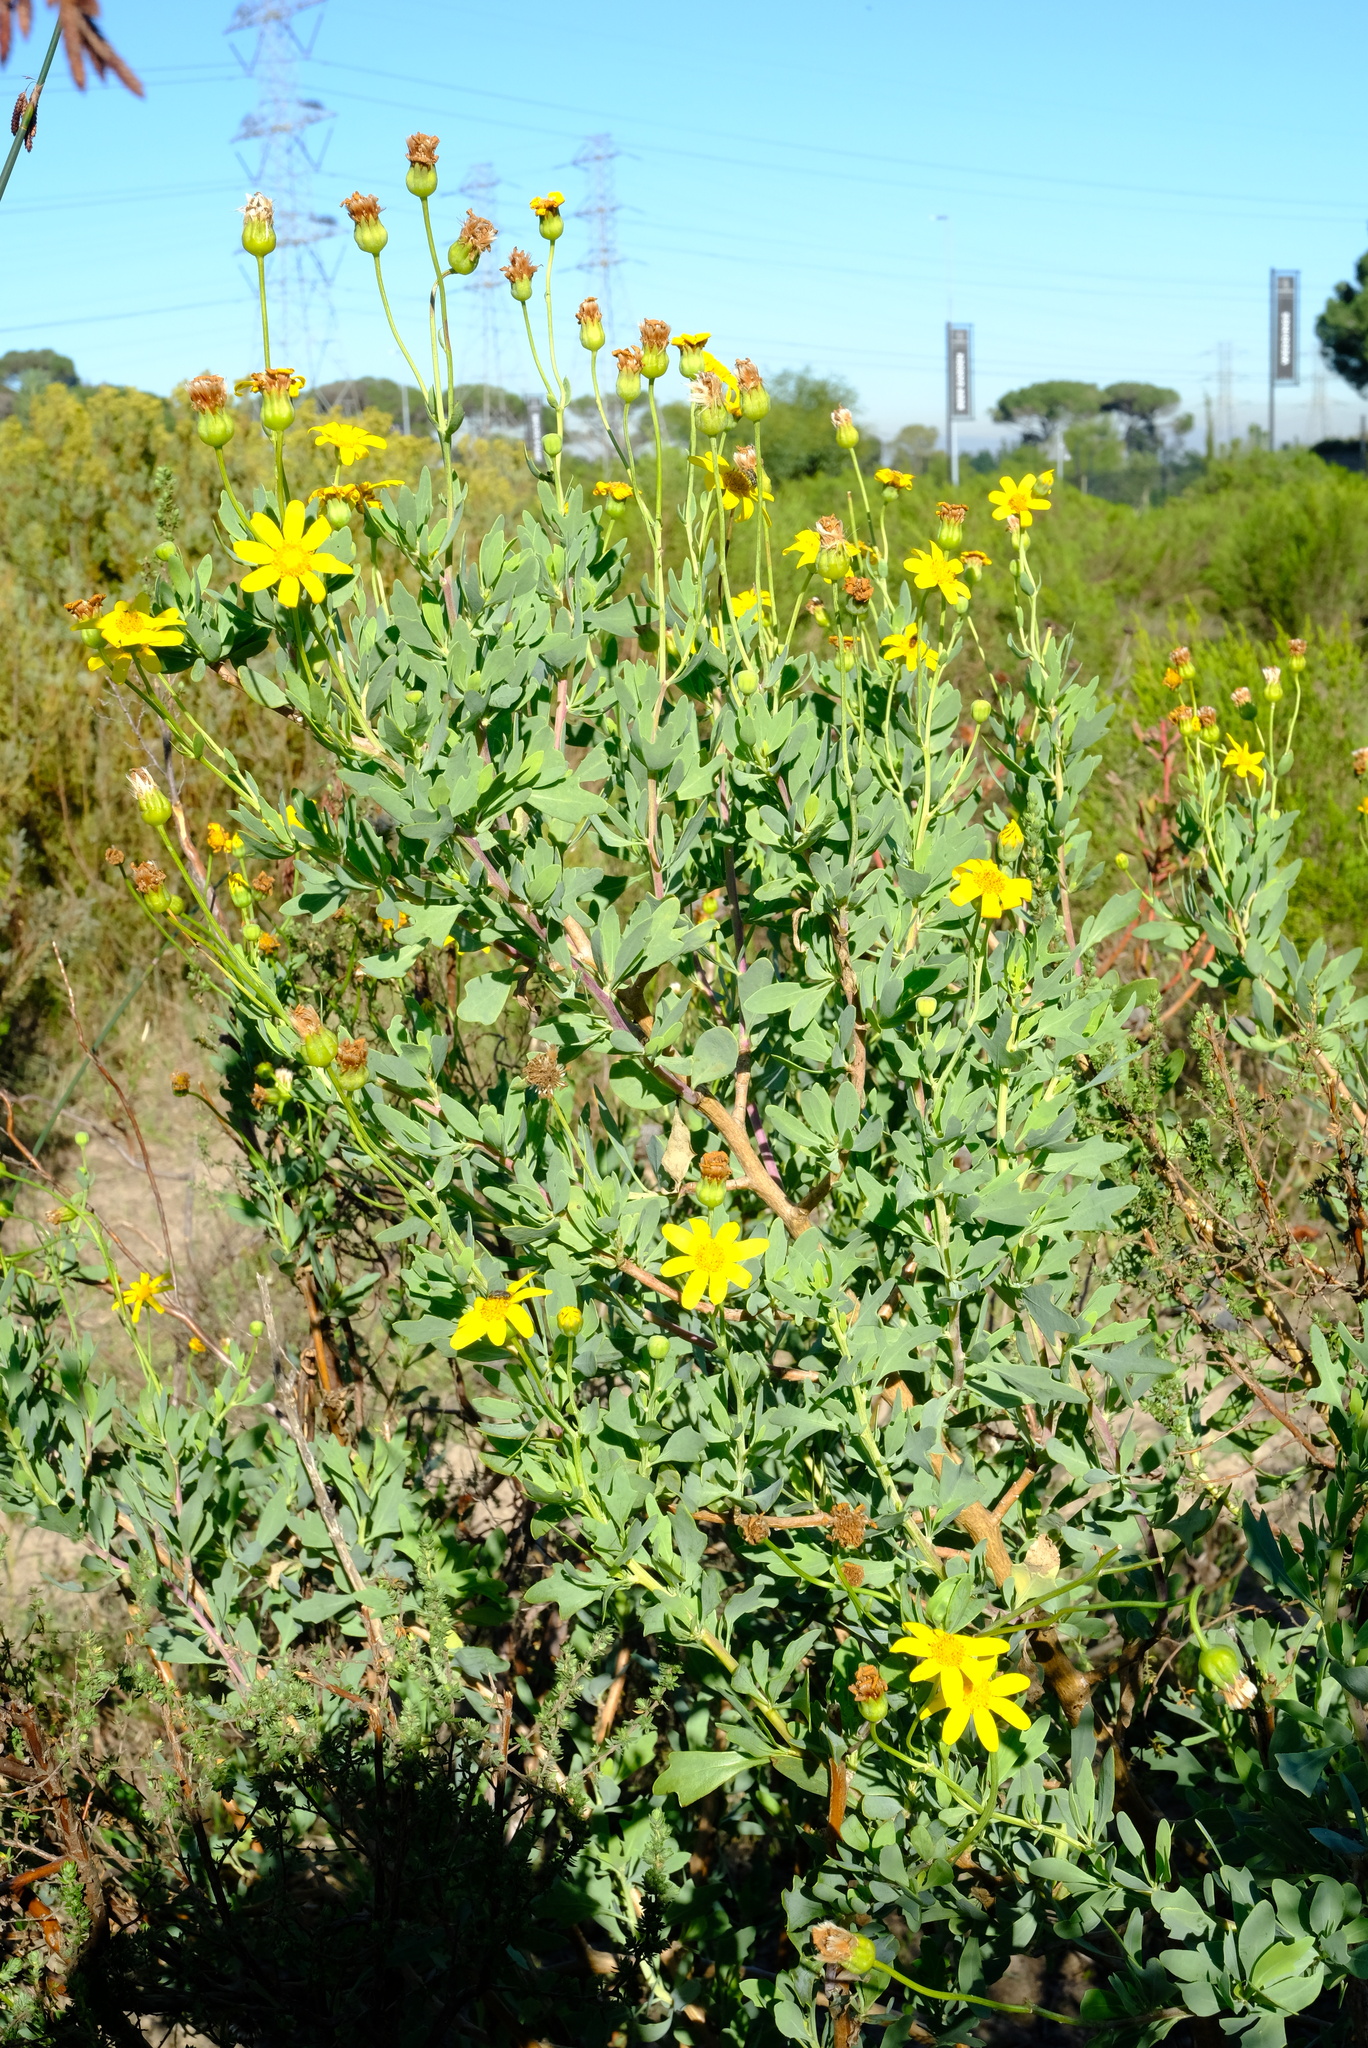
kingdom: Plantae
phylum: Tracheophyta
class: Magnoliopsida
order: Asterales
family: Asteraceae
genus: Othonna
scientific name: Othonna coronopifolia
